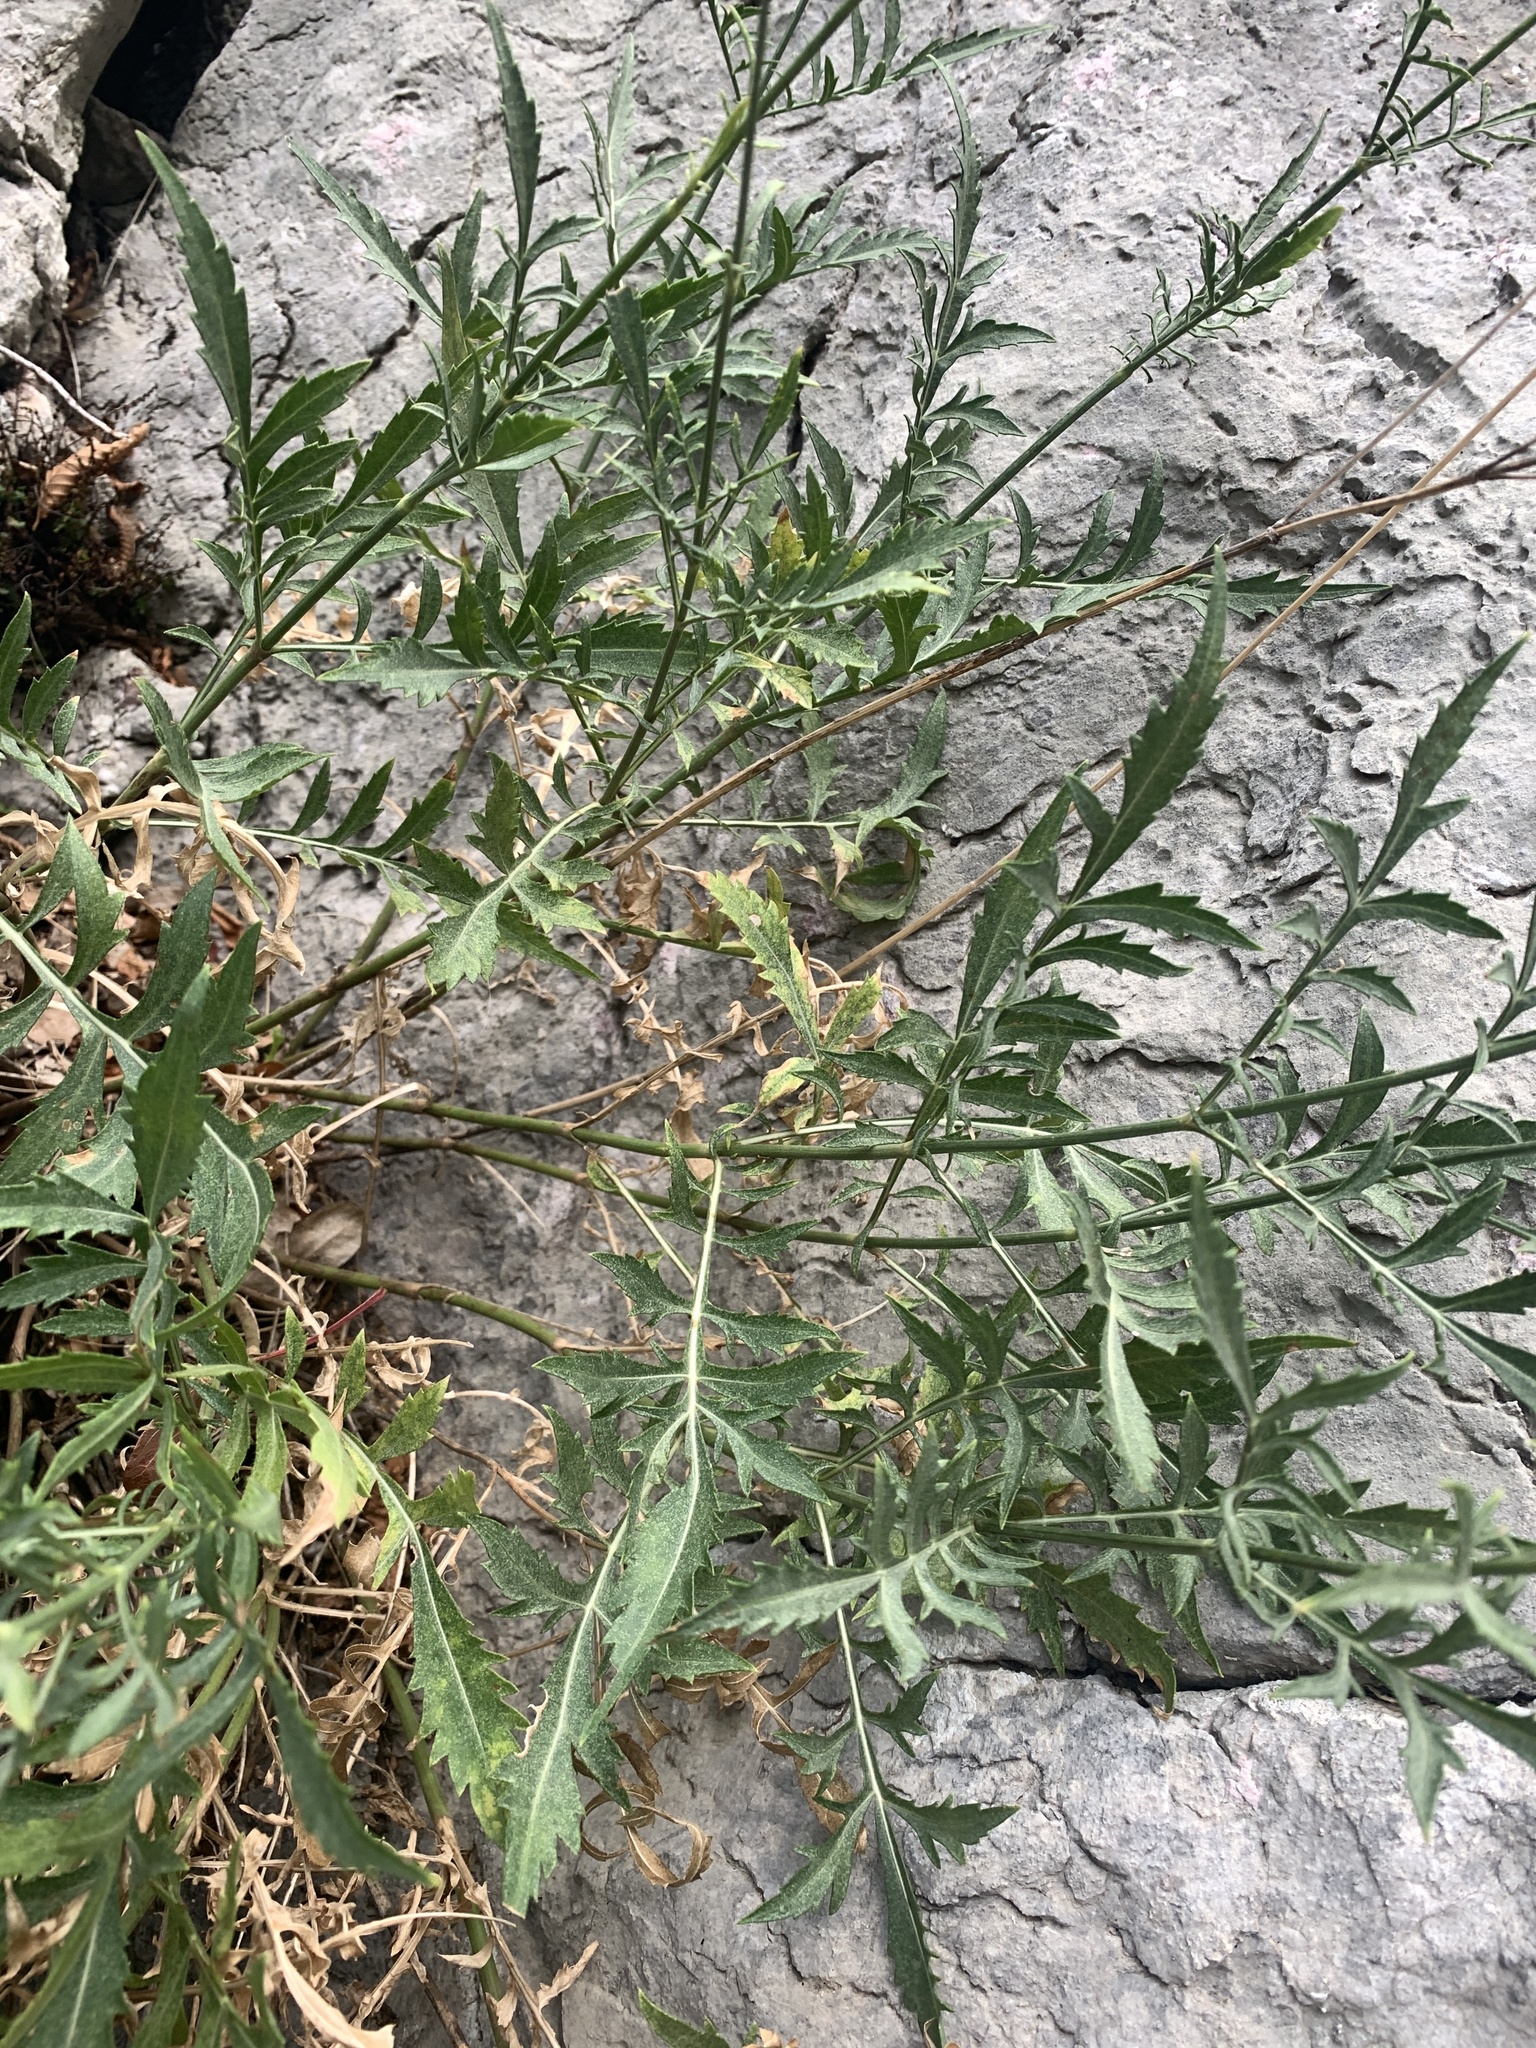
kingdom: Plantae
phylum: Tracheophyta
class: Magnoliopsida
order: Dipsacales
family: Caprifoliaceae
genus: Cephalaria
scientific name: Cephalaria leucantha
